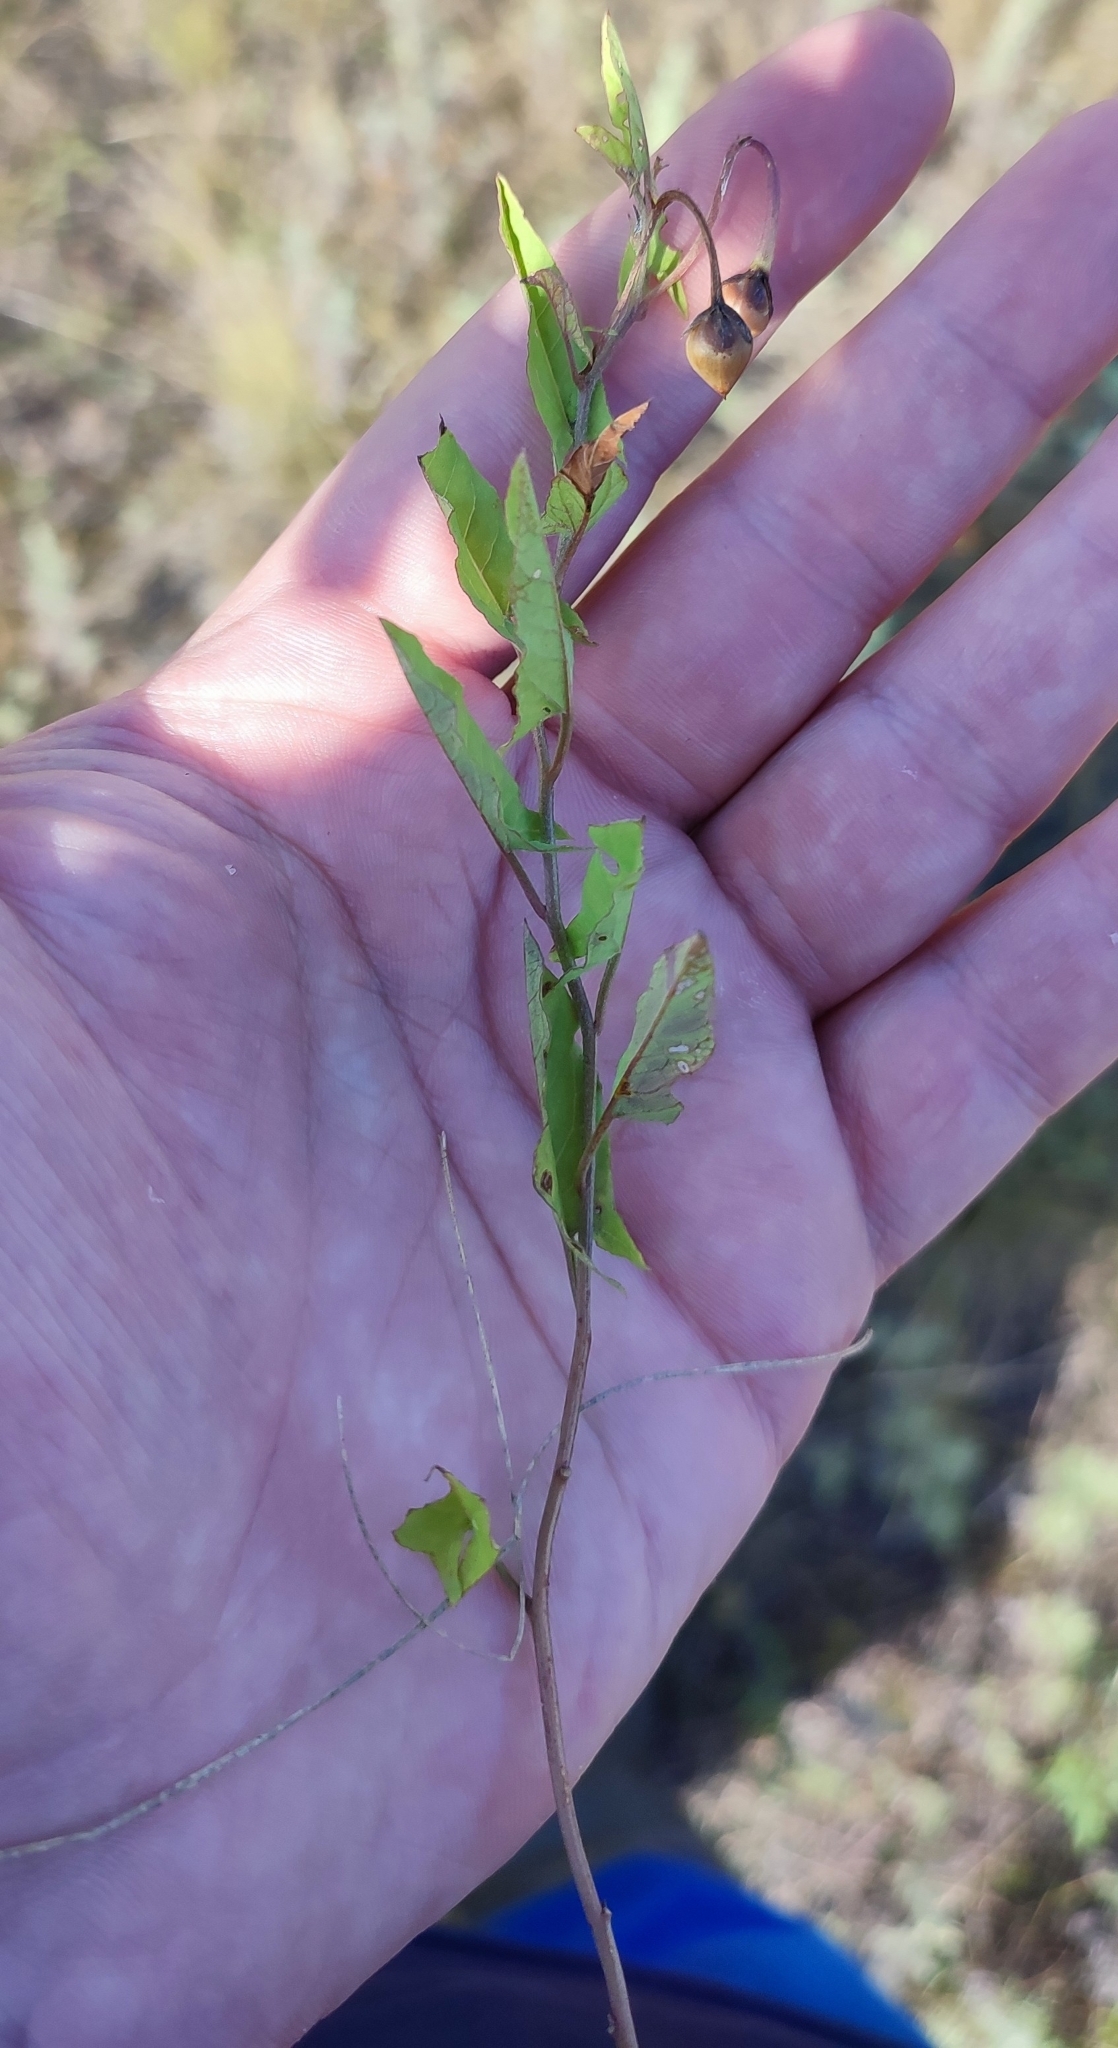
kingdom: Plantae
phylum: Tracheophyta
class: Magnoliopsida
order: Solanales
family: Convolvulaceae
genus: Convolvulus
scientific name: Convolvulus arvensis
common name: Field bindweed
